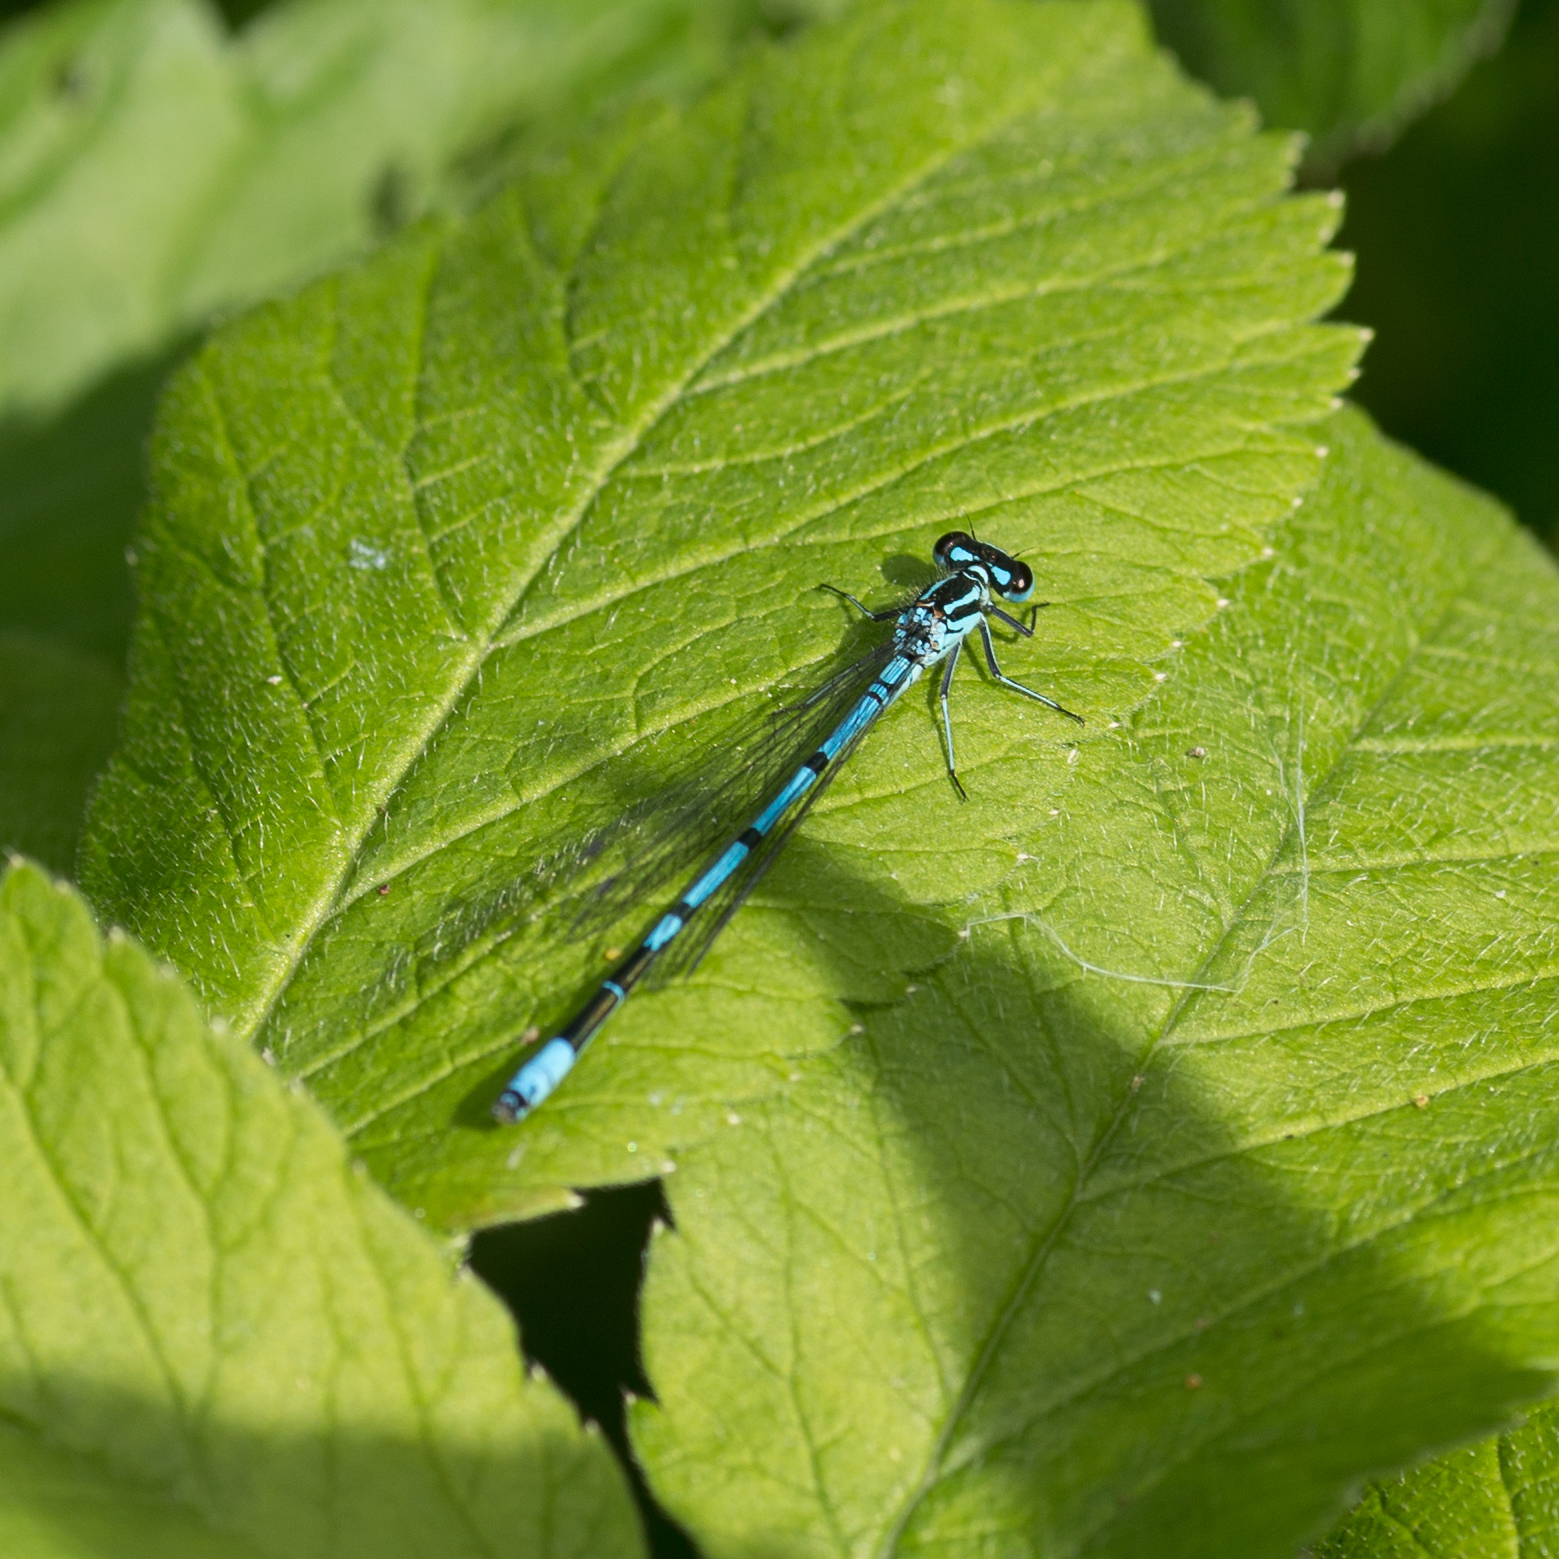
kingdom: Animalia
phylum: Arthropoda
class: Insecta
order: Odonata
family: Coenagrionidae
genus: Coenagrion
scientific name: Coenagrion puella
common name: Azure damselfly
